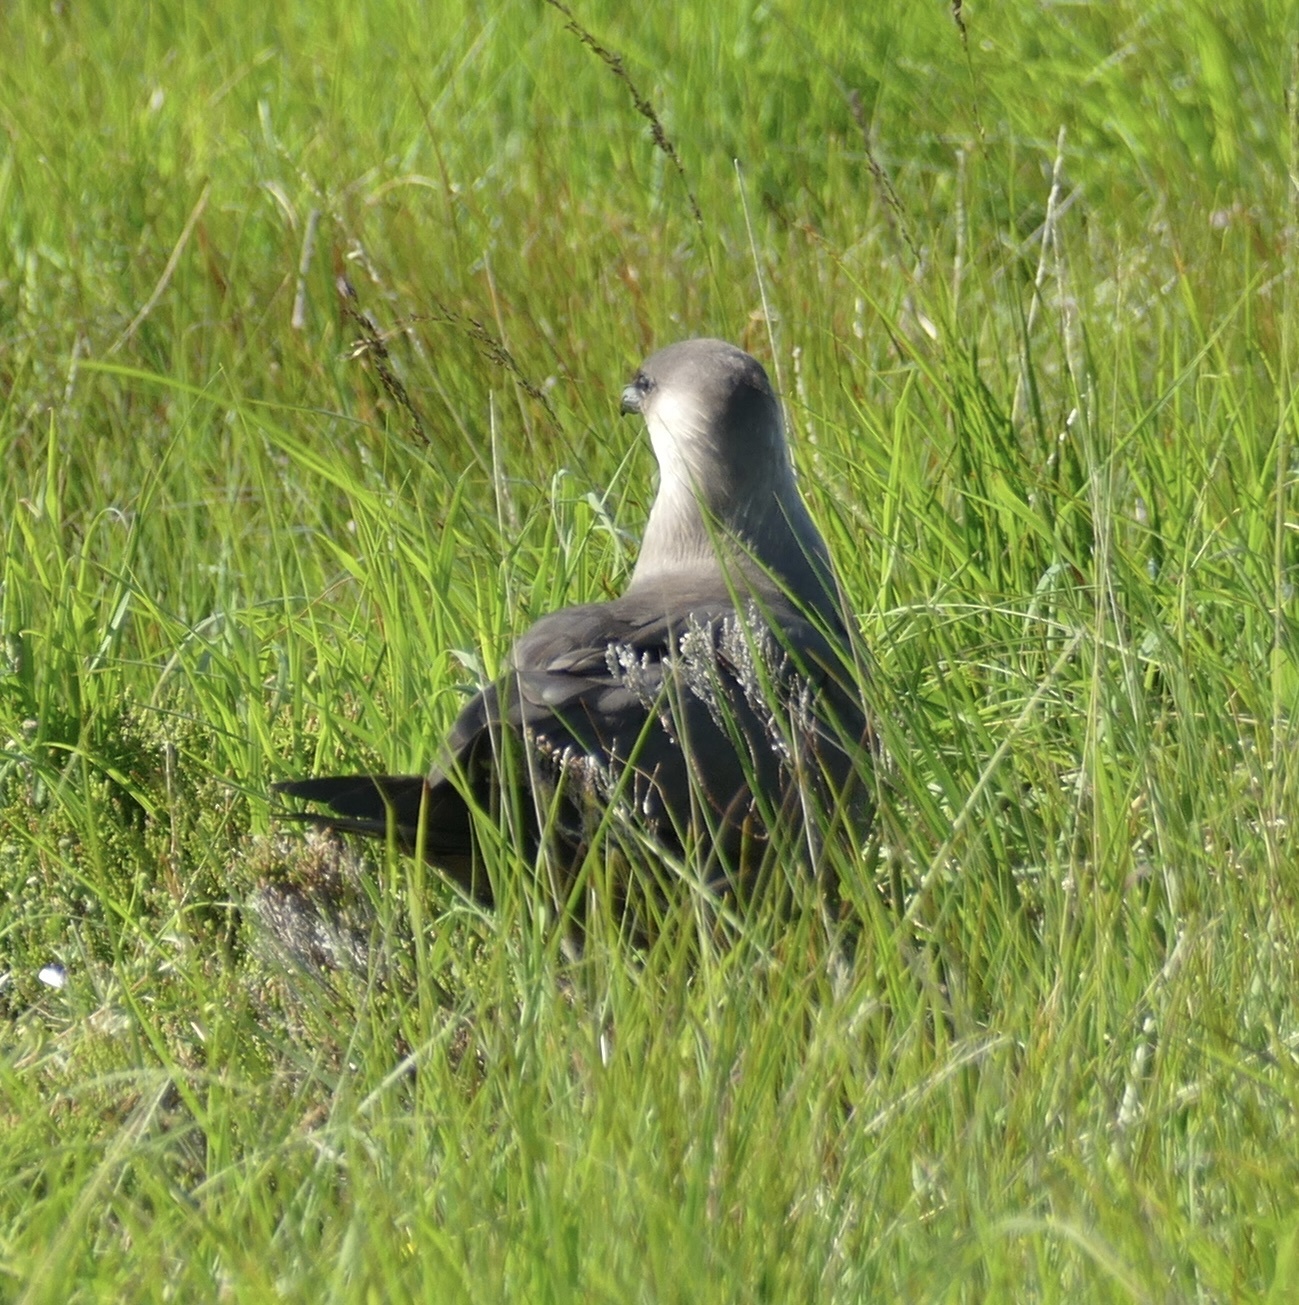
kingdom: Animalia
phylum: Chordata
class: Aves
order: Charadriiformes
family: Stercorariidae
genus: Stercorarius
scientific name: Stercorarius parasiticus
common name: Parasitic jaeger
